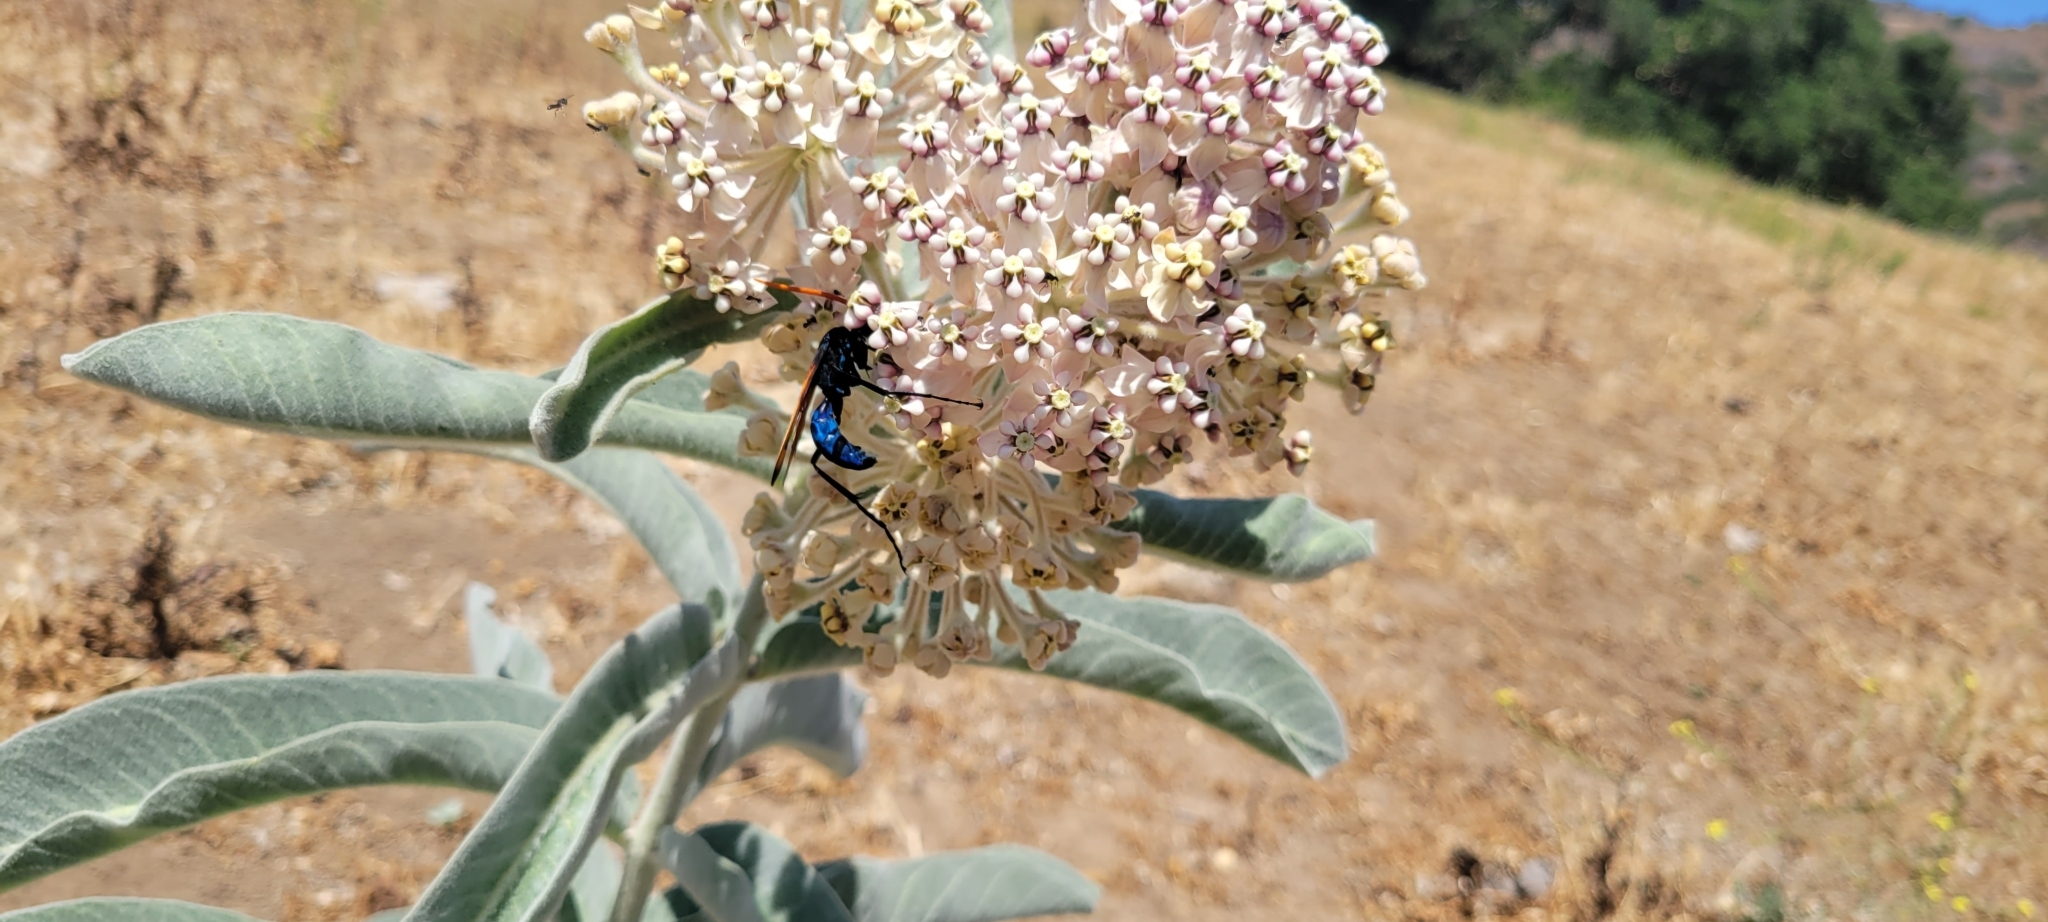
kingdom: Plantae
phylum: Tracheophyta
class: Magnoliopsida
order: Gentianales
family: Apocynaceae
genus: Asclepias
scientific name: Asclepias eriocarpa
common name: Indian milkweed
